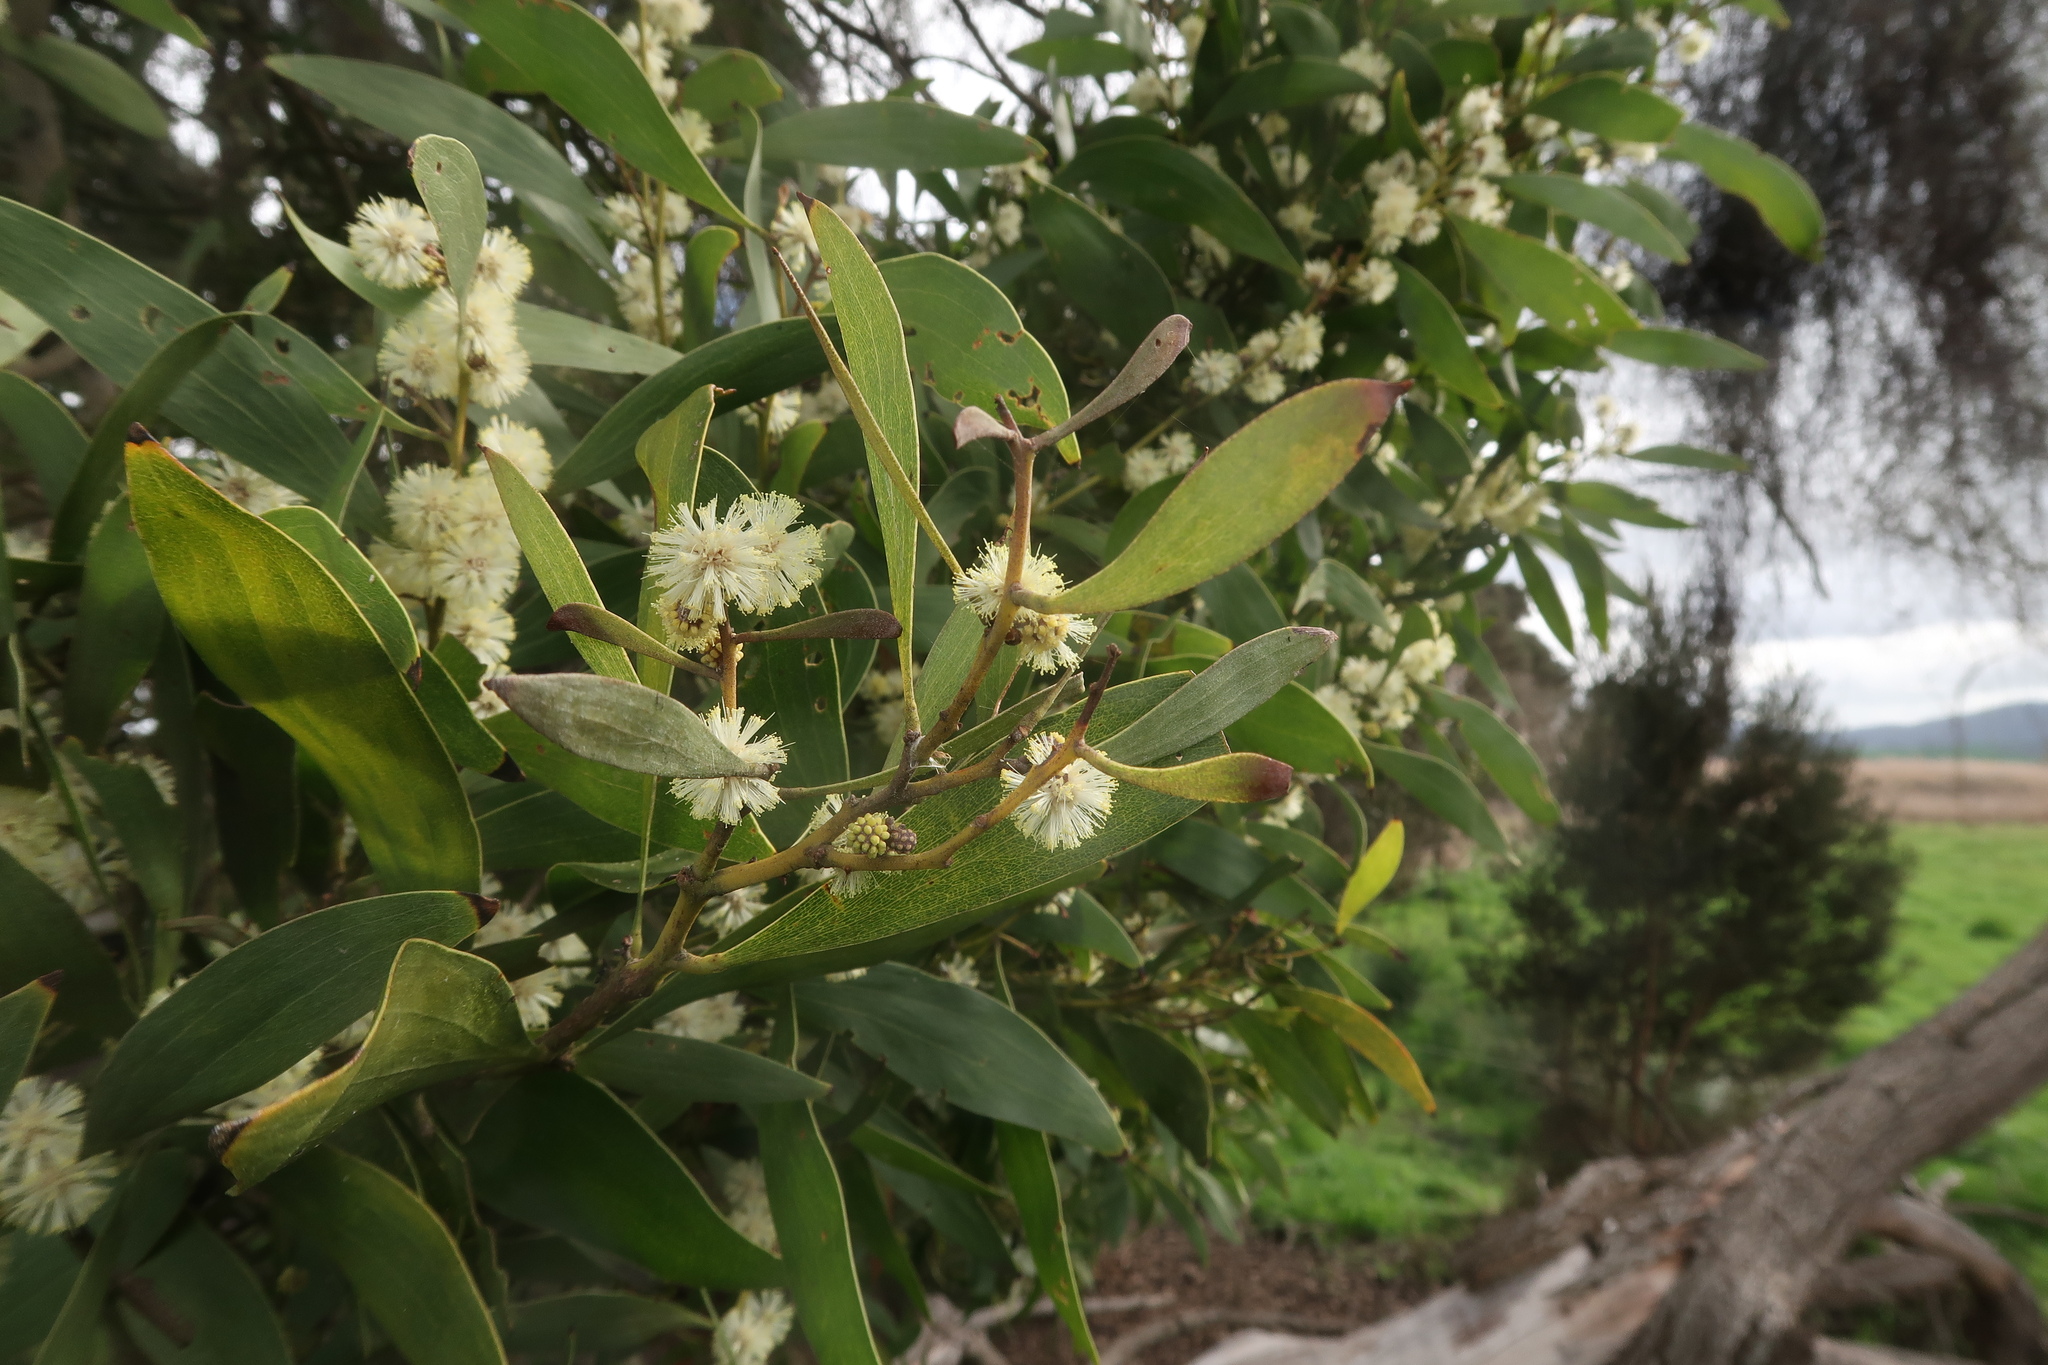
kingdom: Plantae
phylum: Tracheophyta
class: Magnoliopsida
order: Fabales
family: Fabaceae
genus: Acacia
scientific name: Acacia melanoxylon
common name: Blackwood
